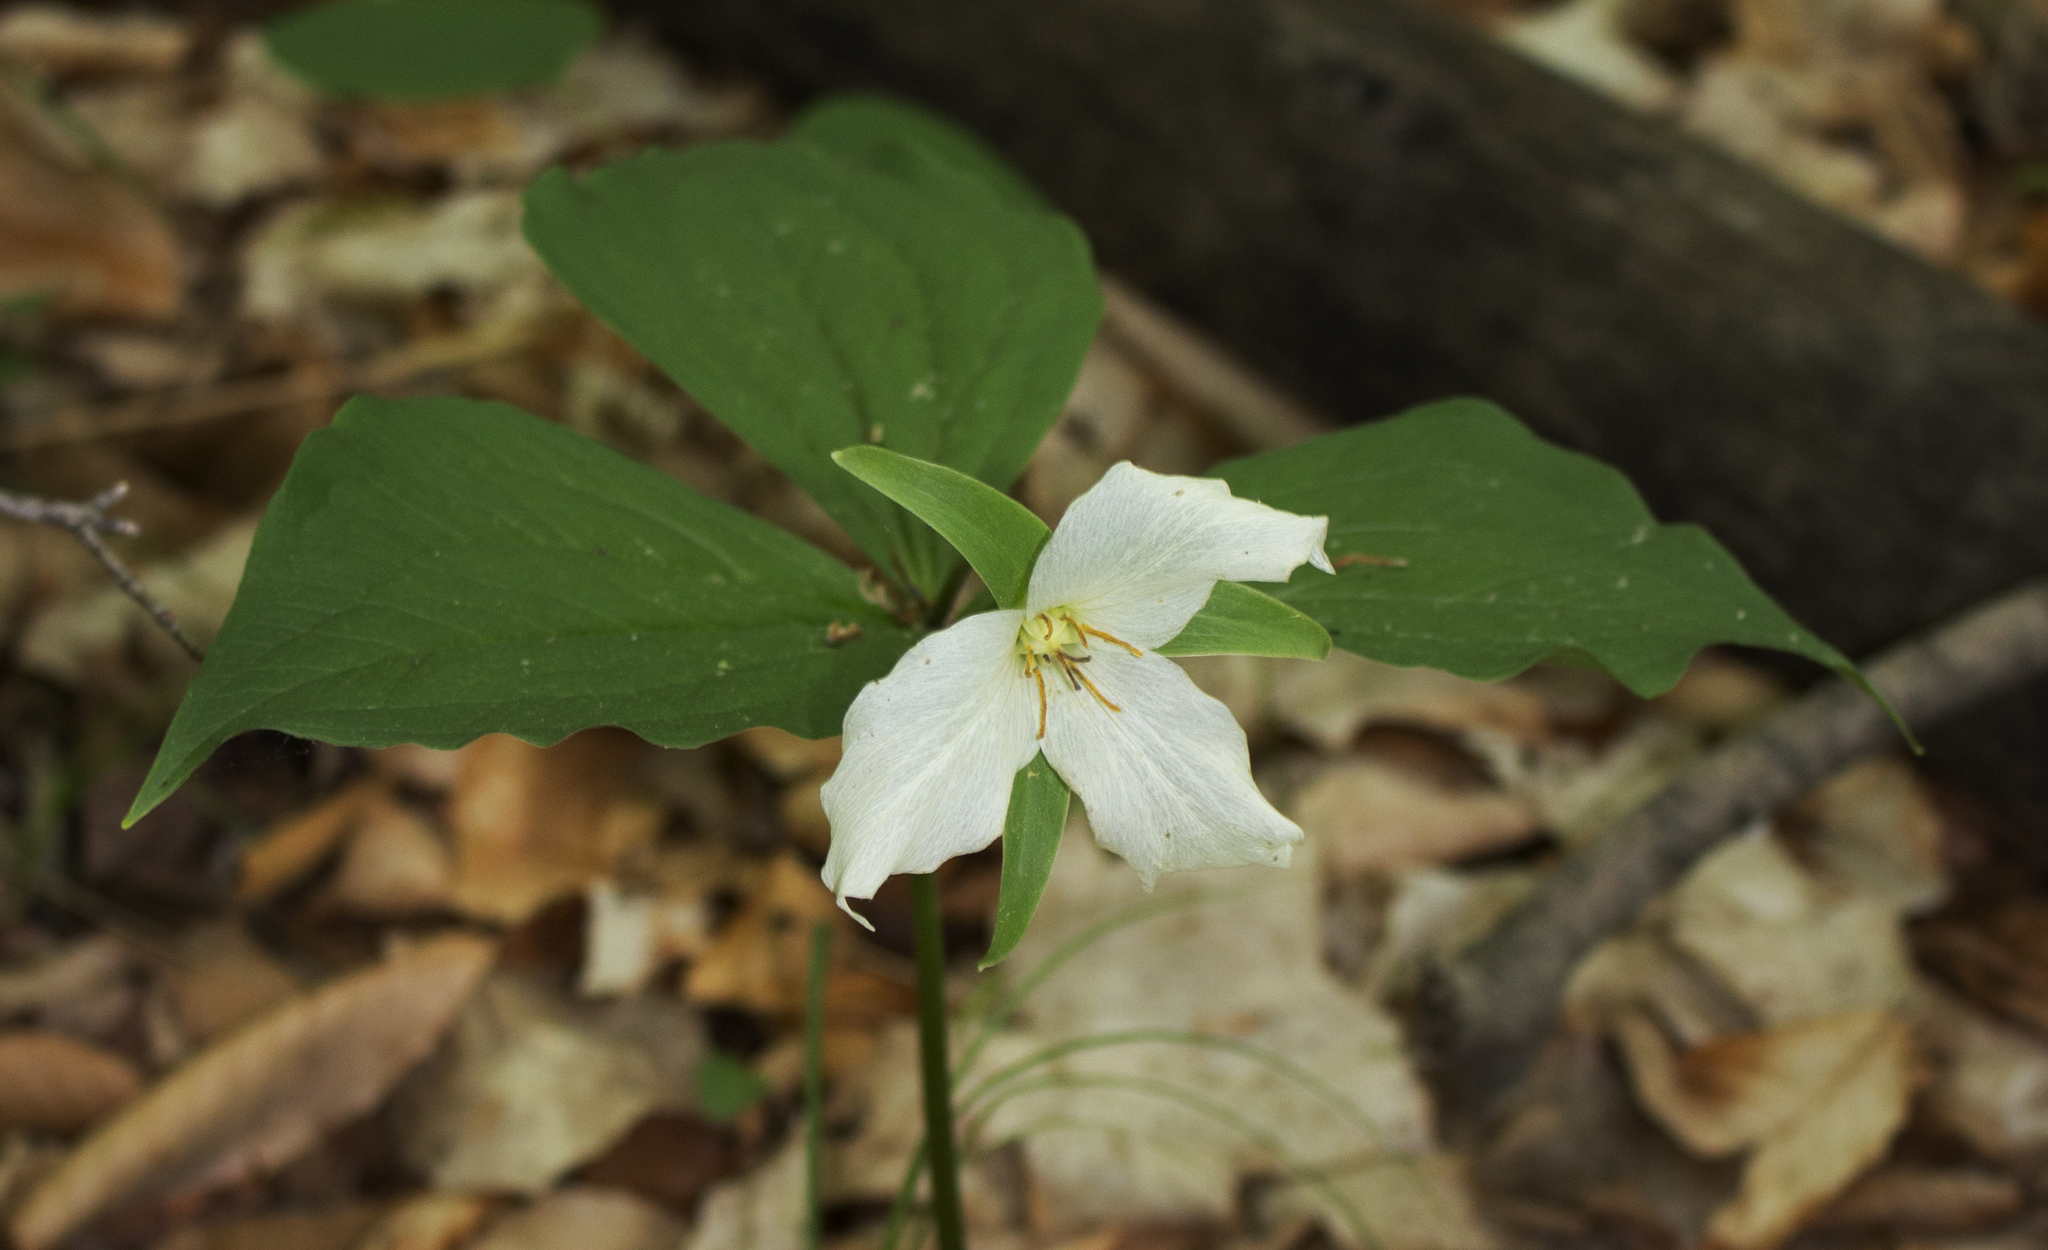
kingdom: Plantae
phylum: Tracheophyta
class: Liliopsida
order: Liliales
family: Melanthiaceae
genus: Trillium
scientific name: Trillium grandiflorum
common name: Great white trillium
